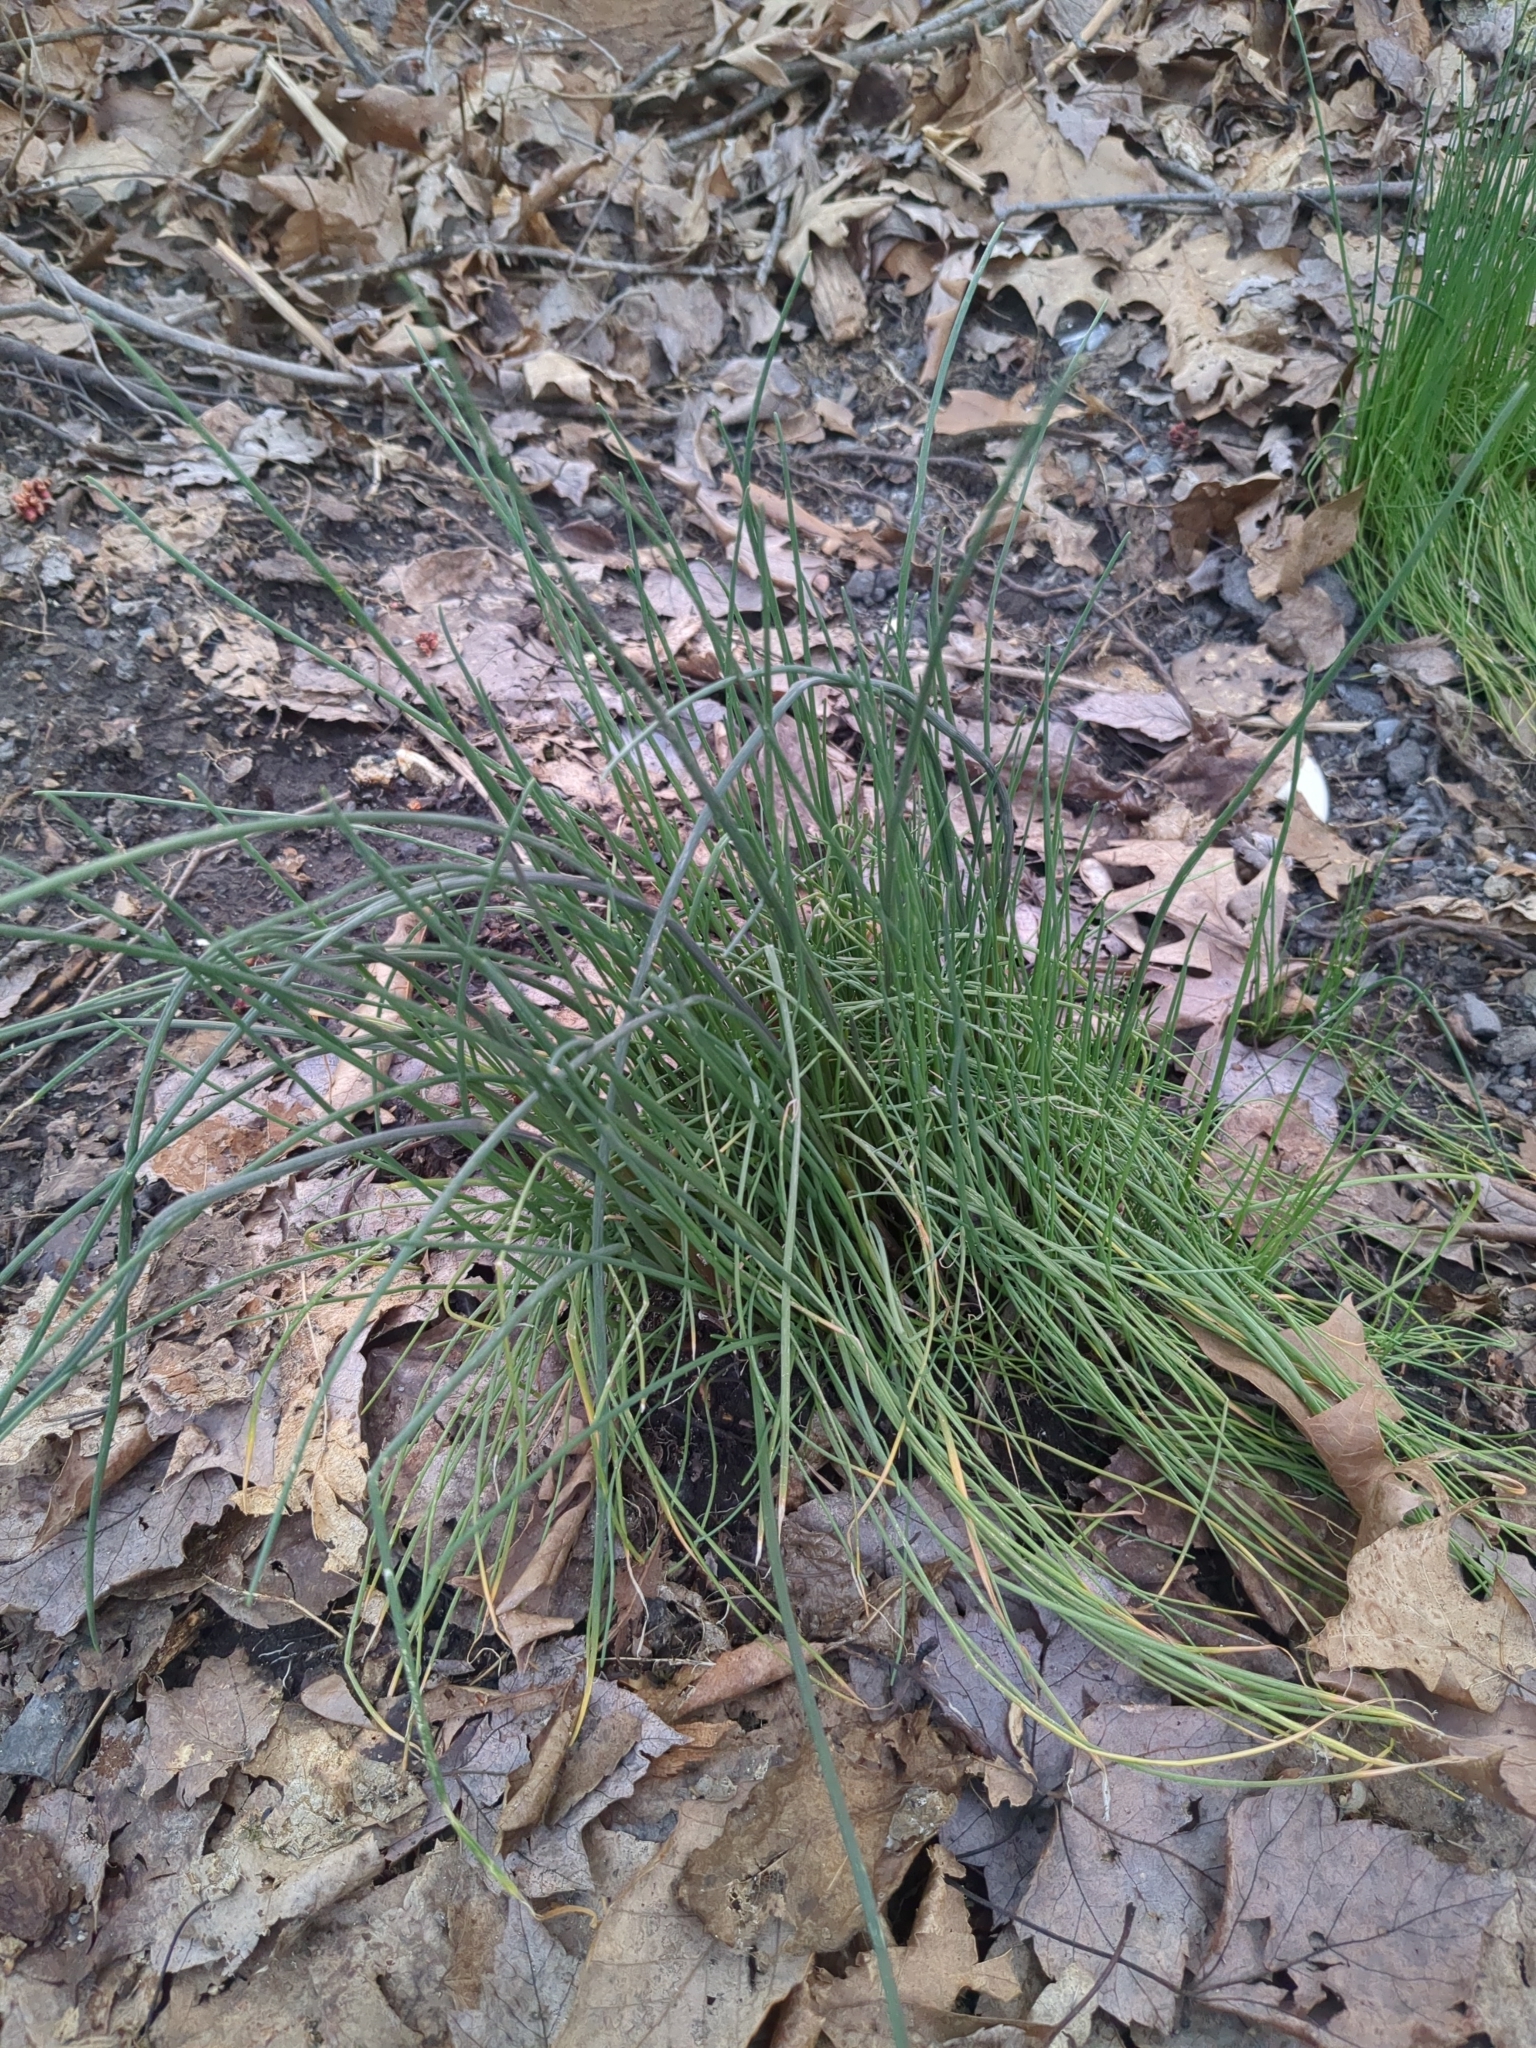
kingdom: Plantae
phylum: Tracheophyta
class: Liliopsida
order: Asparagales
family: Amaryllidaceae
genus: Allium
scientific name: Allium vineale
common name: Crow garlic
